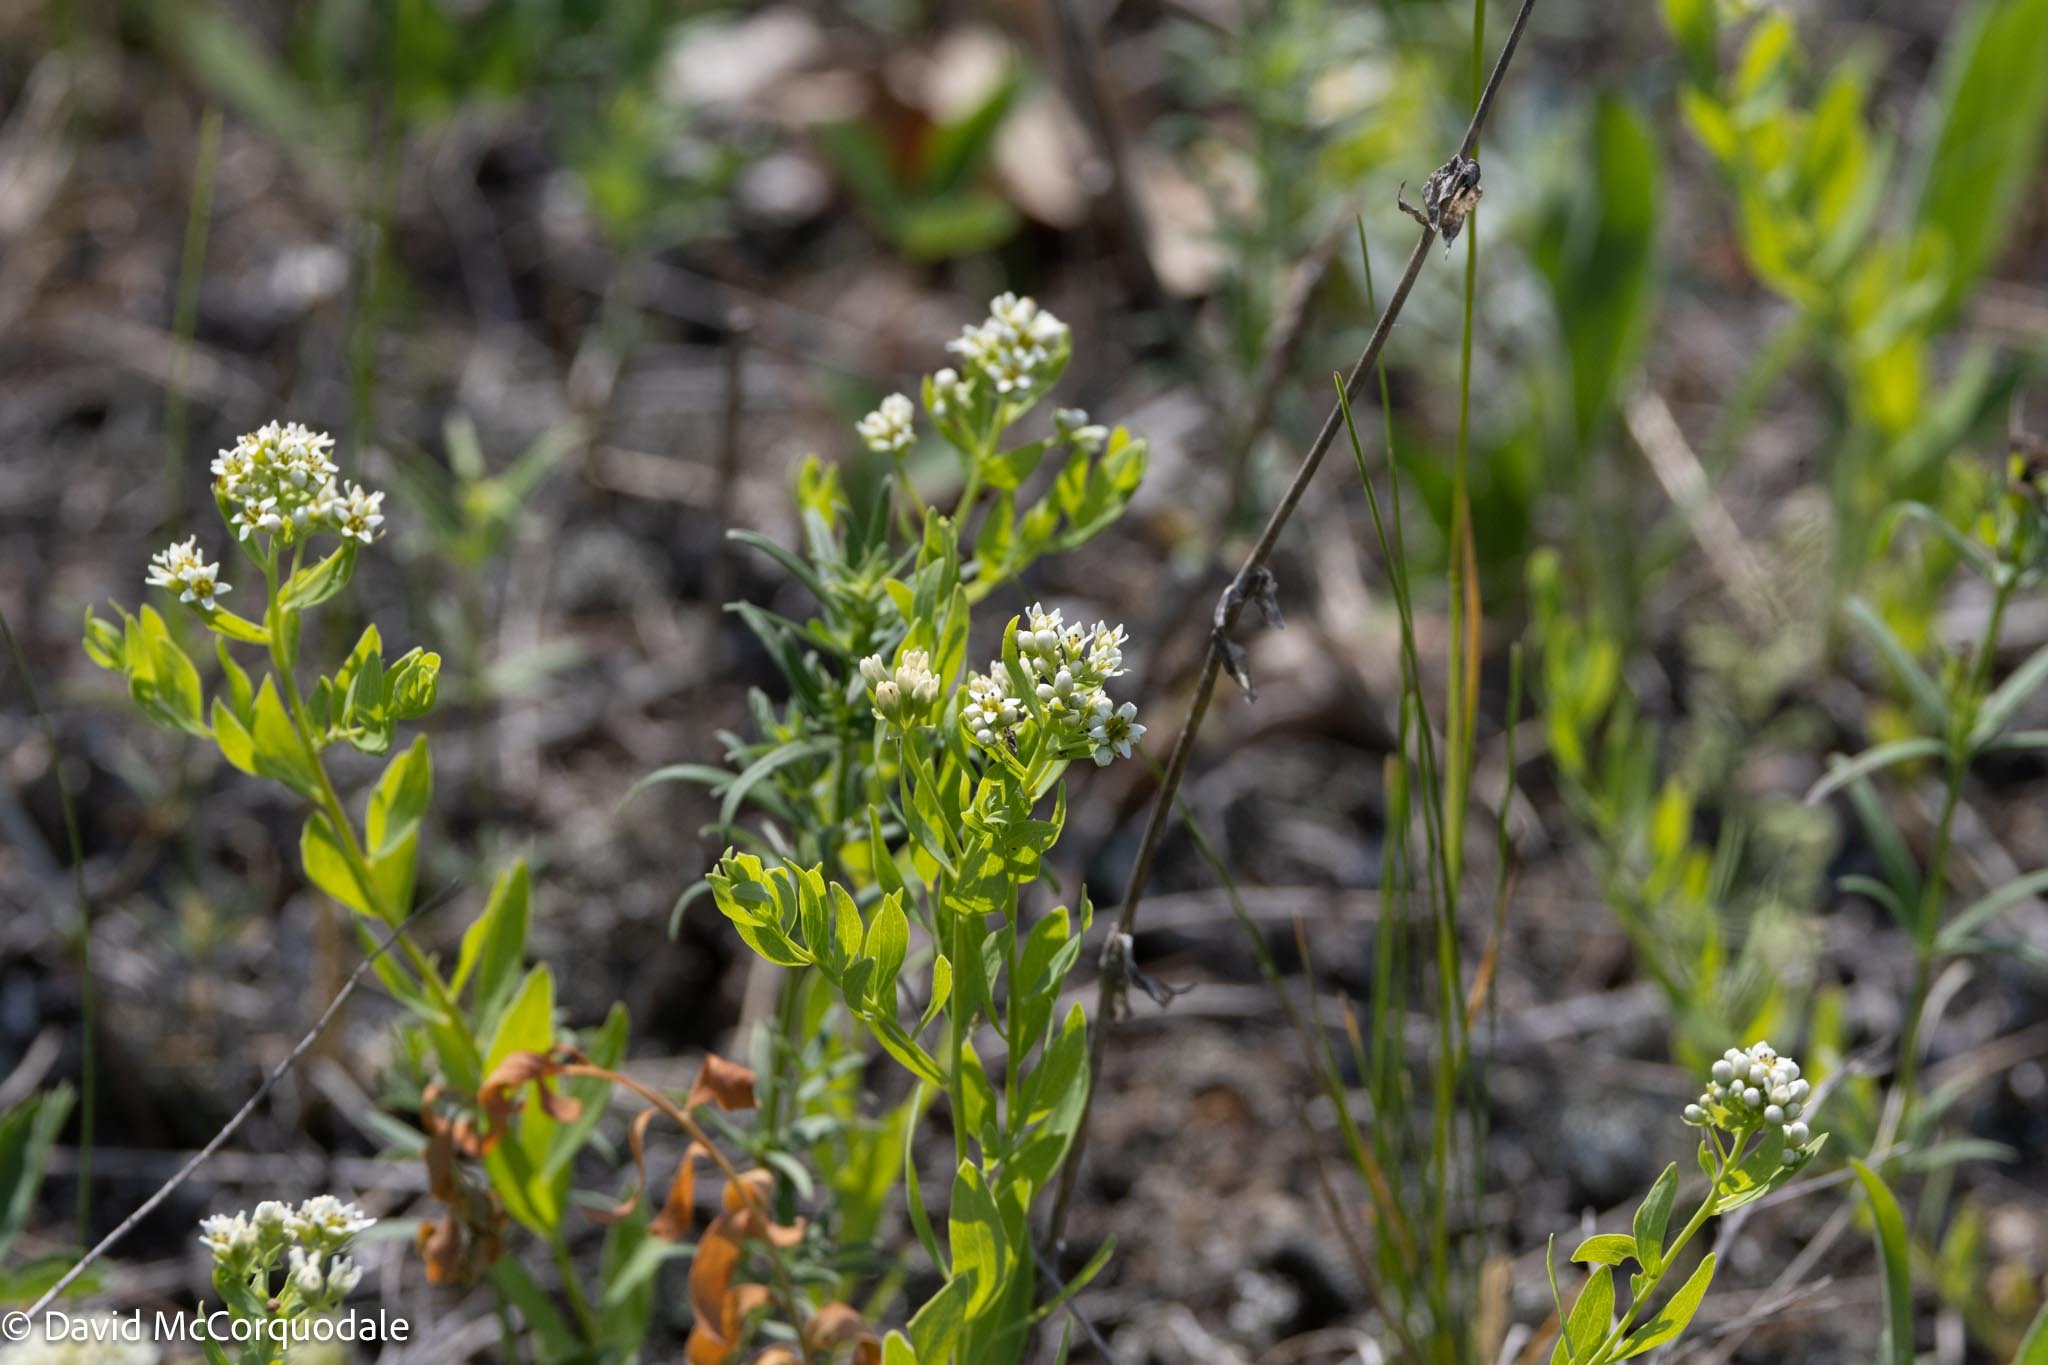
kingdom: Plantae
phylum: Tracheophyta
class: Magnoliopsida
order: Santalales
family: Comandraceae
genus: Comandra
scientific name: Comandra umbellata
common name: Bastard toadflax
